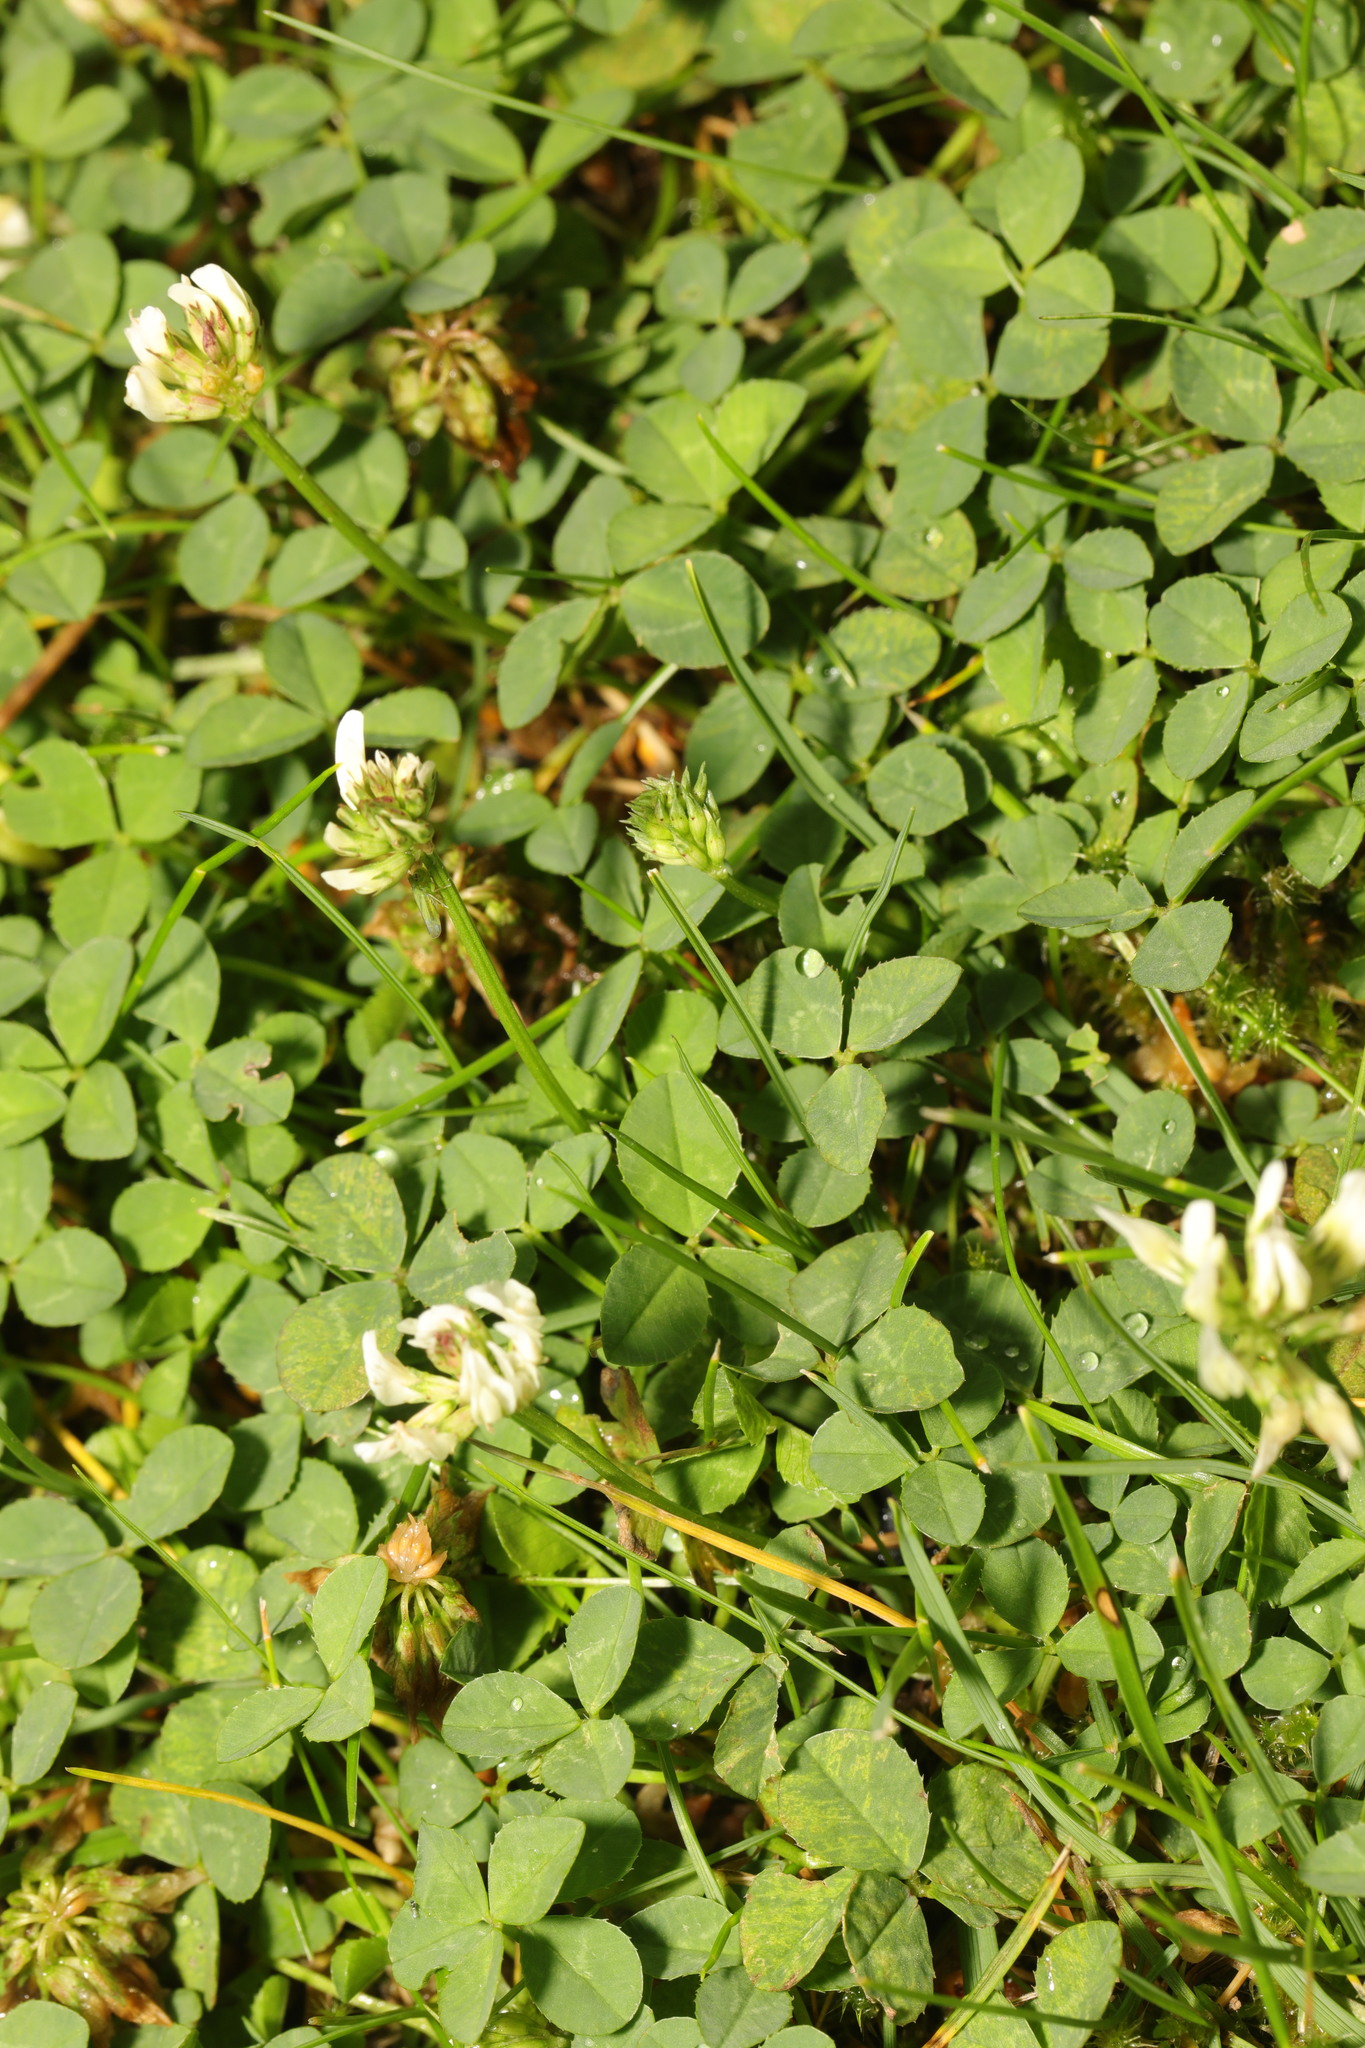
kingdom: Plantae
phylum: Tracheophyta
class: Magnoliopsida
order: Fabales
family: Fabaceae
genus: Trifolium
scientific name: Trifolium repens
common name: White clover
